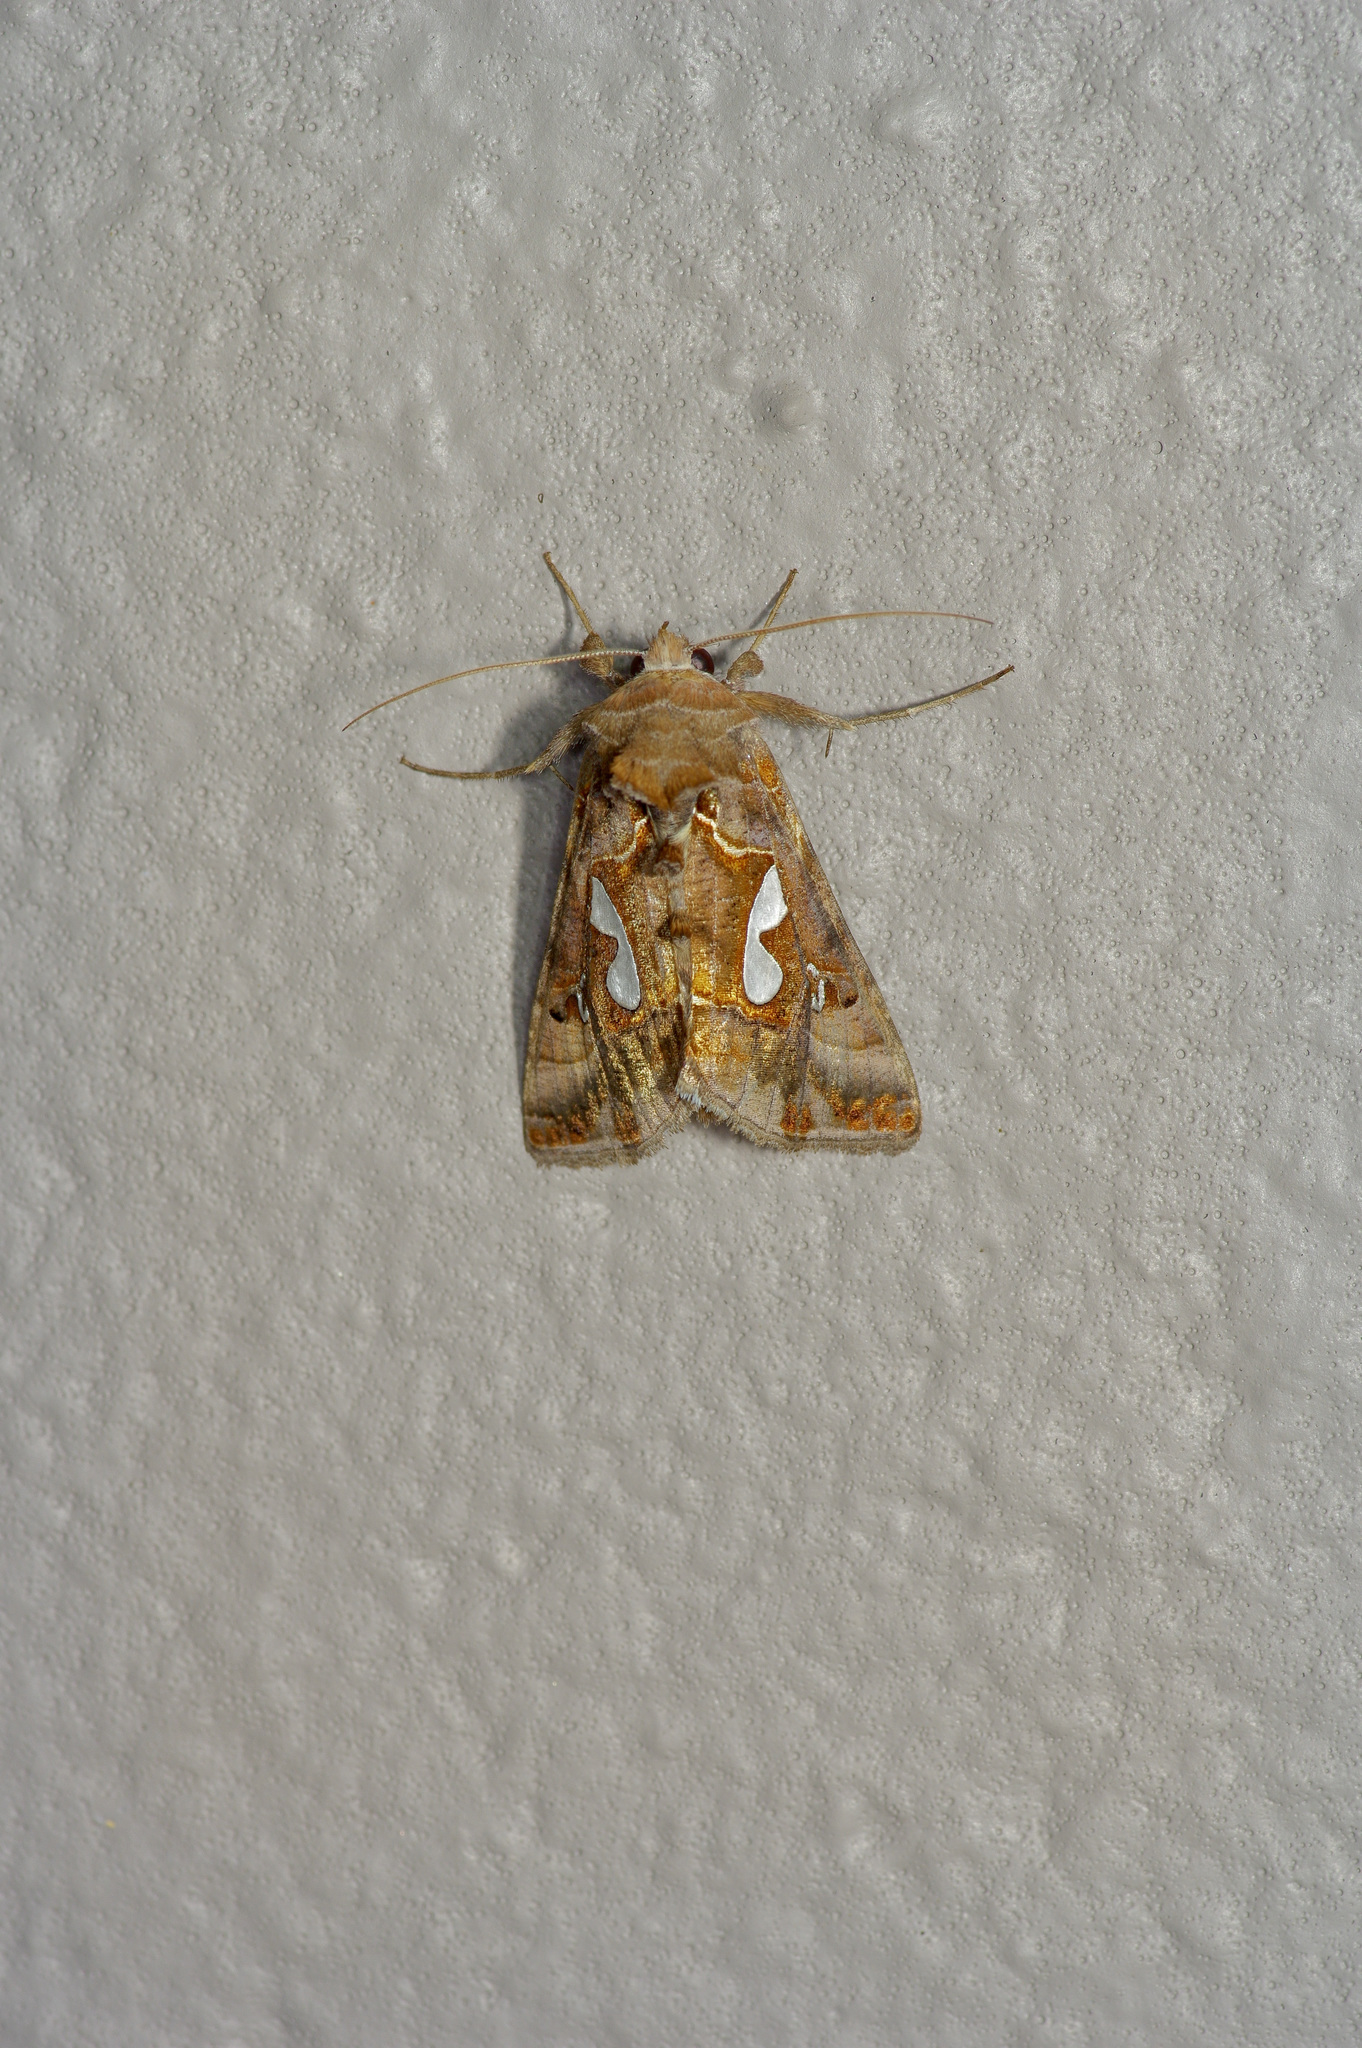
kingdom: Animalia
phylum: Arthropoda
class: Insecta
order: Lepidoptera
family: Noctuidae
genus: Megalographa
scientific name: Megalographa biloba
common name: Cutworm
